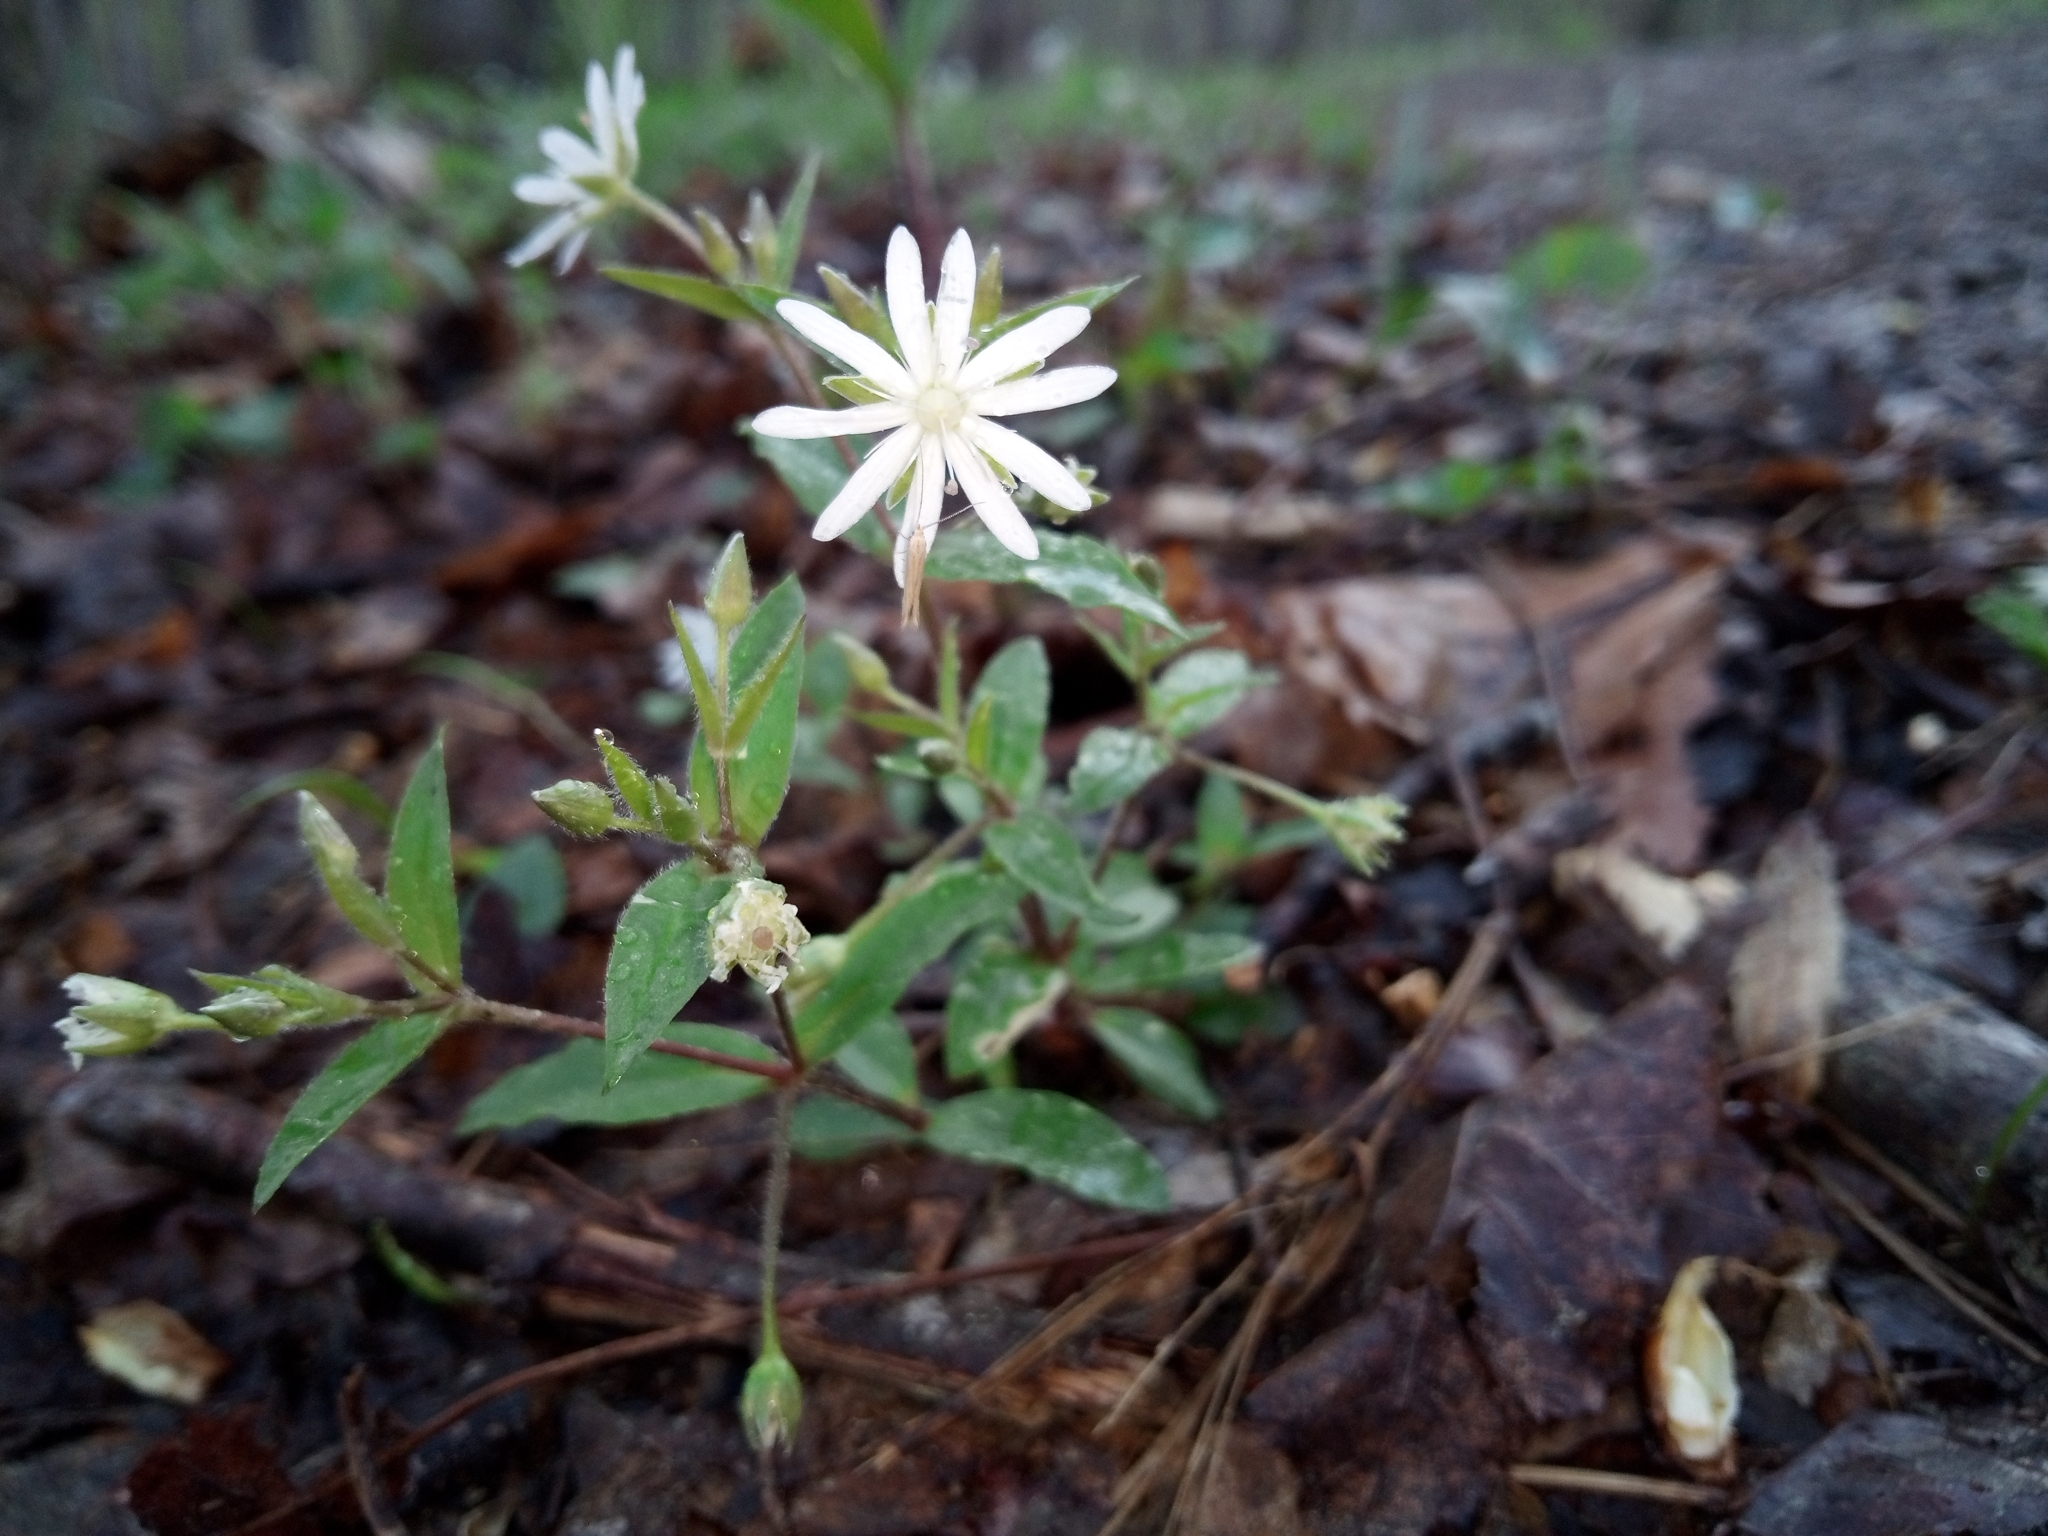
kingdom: Plantae
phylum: Tracheophyta
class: Magnoliopsida
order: Caryophyllales
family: Caryophyllaceae
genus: Stellaria
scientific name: Stellaria pubera
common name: Star chickweed
